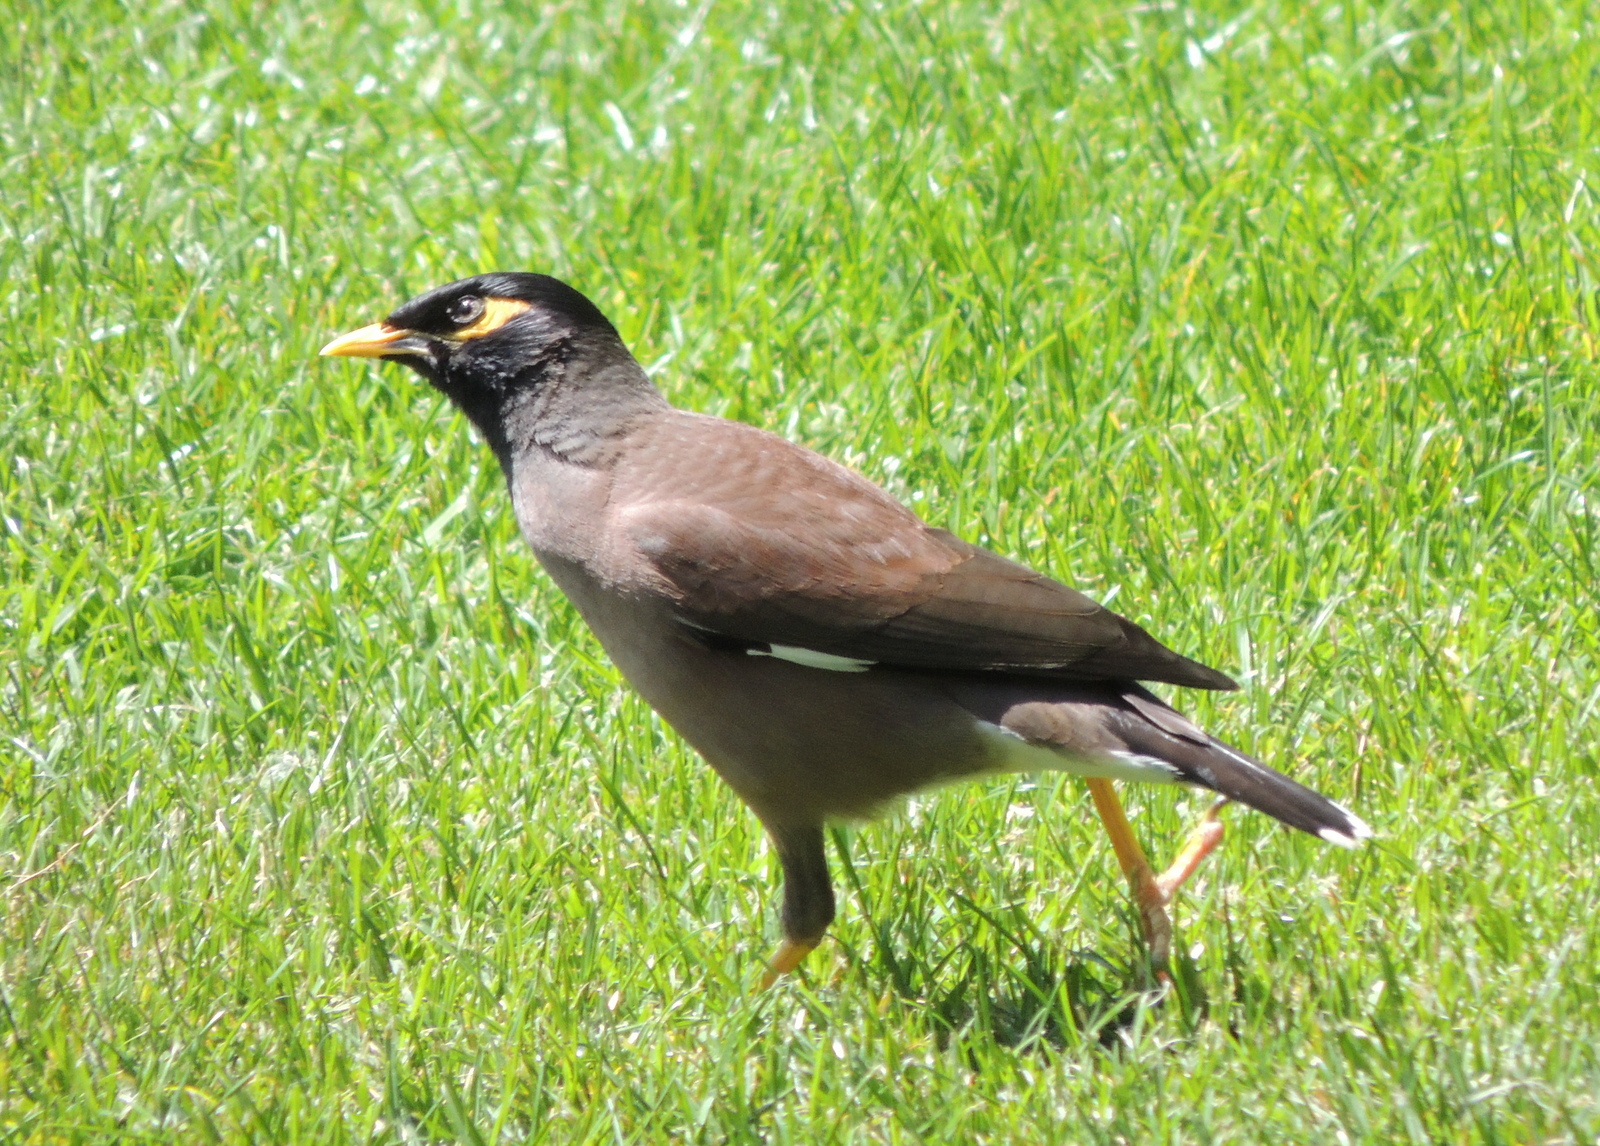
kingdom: Animalia
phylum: Chordata
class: Aves
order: Passeriformes
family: Sturnidae
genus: Acridotheres
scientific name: Acridotheres tristis
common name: Common myna
